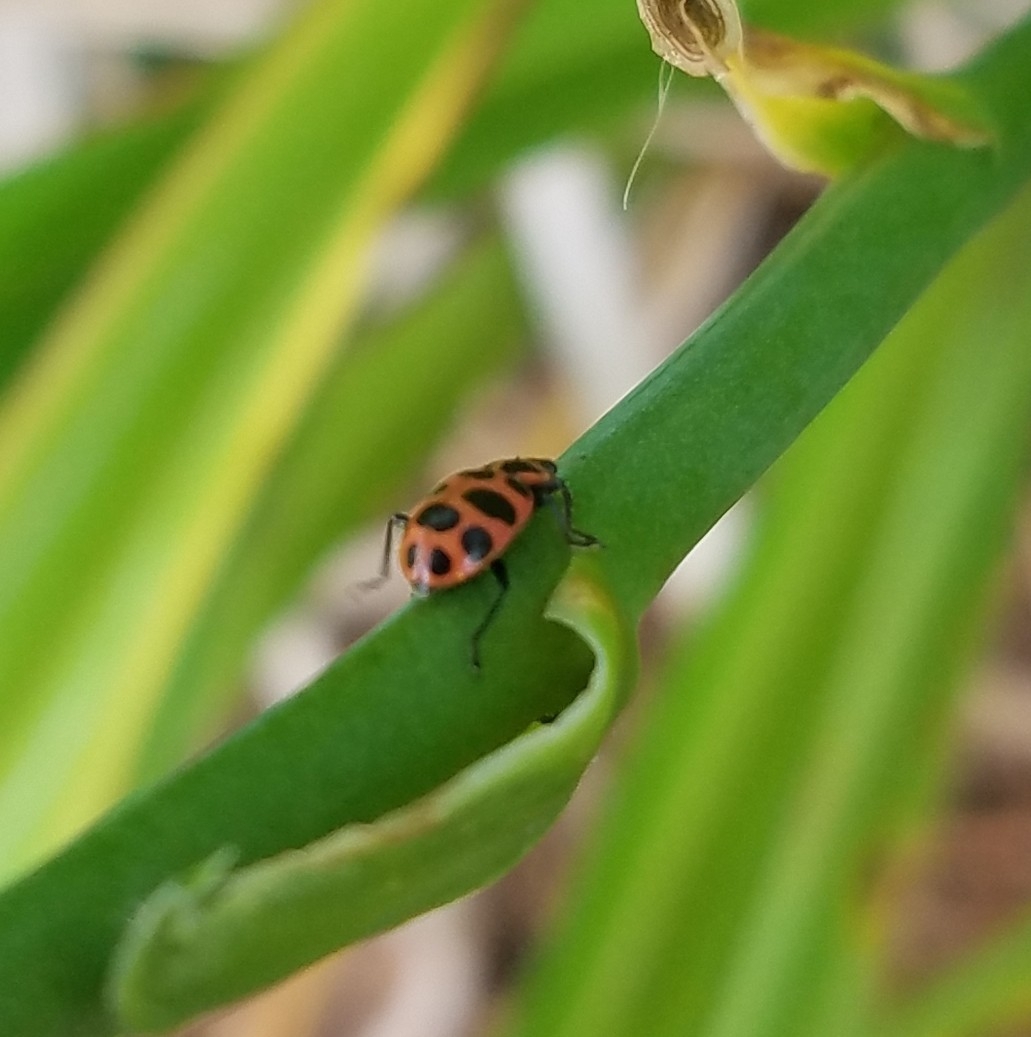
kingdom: Animalia
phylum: Arthropoda
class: Insecta
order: Coleoptera
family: Coccinellidae
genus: Coleomegilla
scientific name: Coleomegilla maculata
